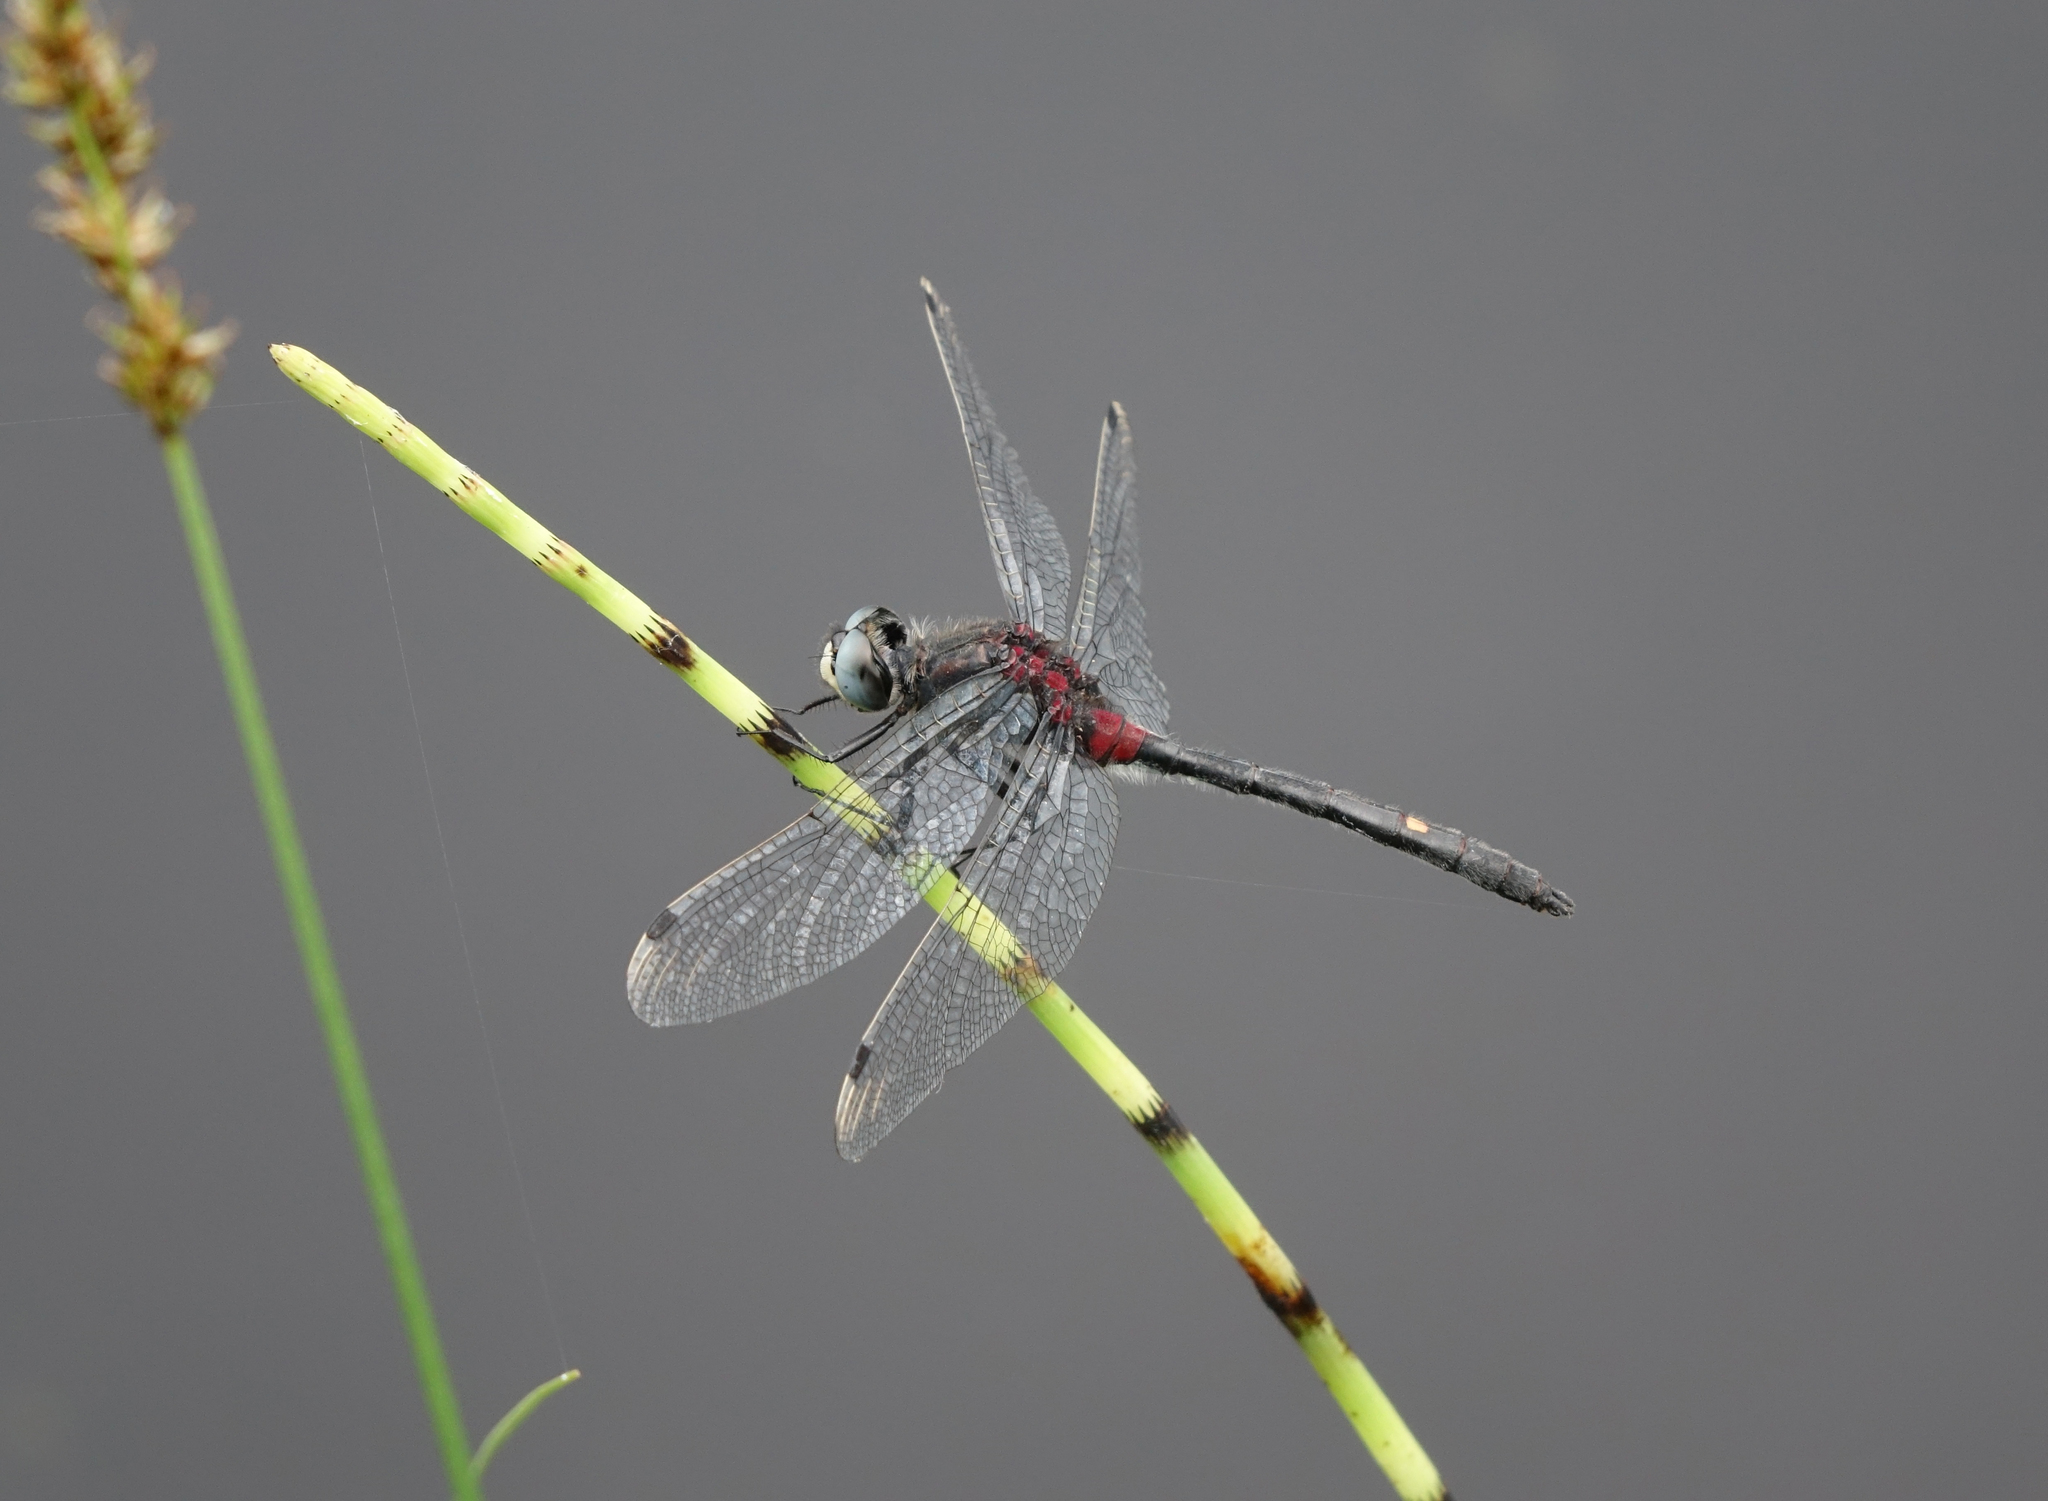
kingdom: Animalia
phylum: Arthropoda
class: Insecta
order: Odonata
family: Libellulidae
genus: Leucorrhinia
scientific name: Leucorrhinia orientalis
